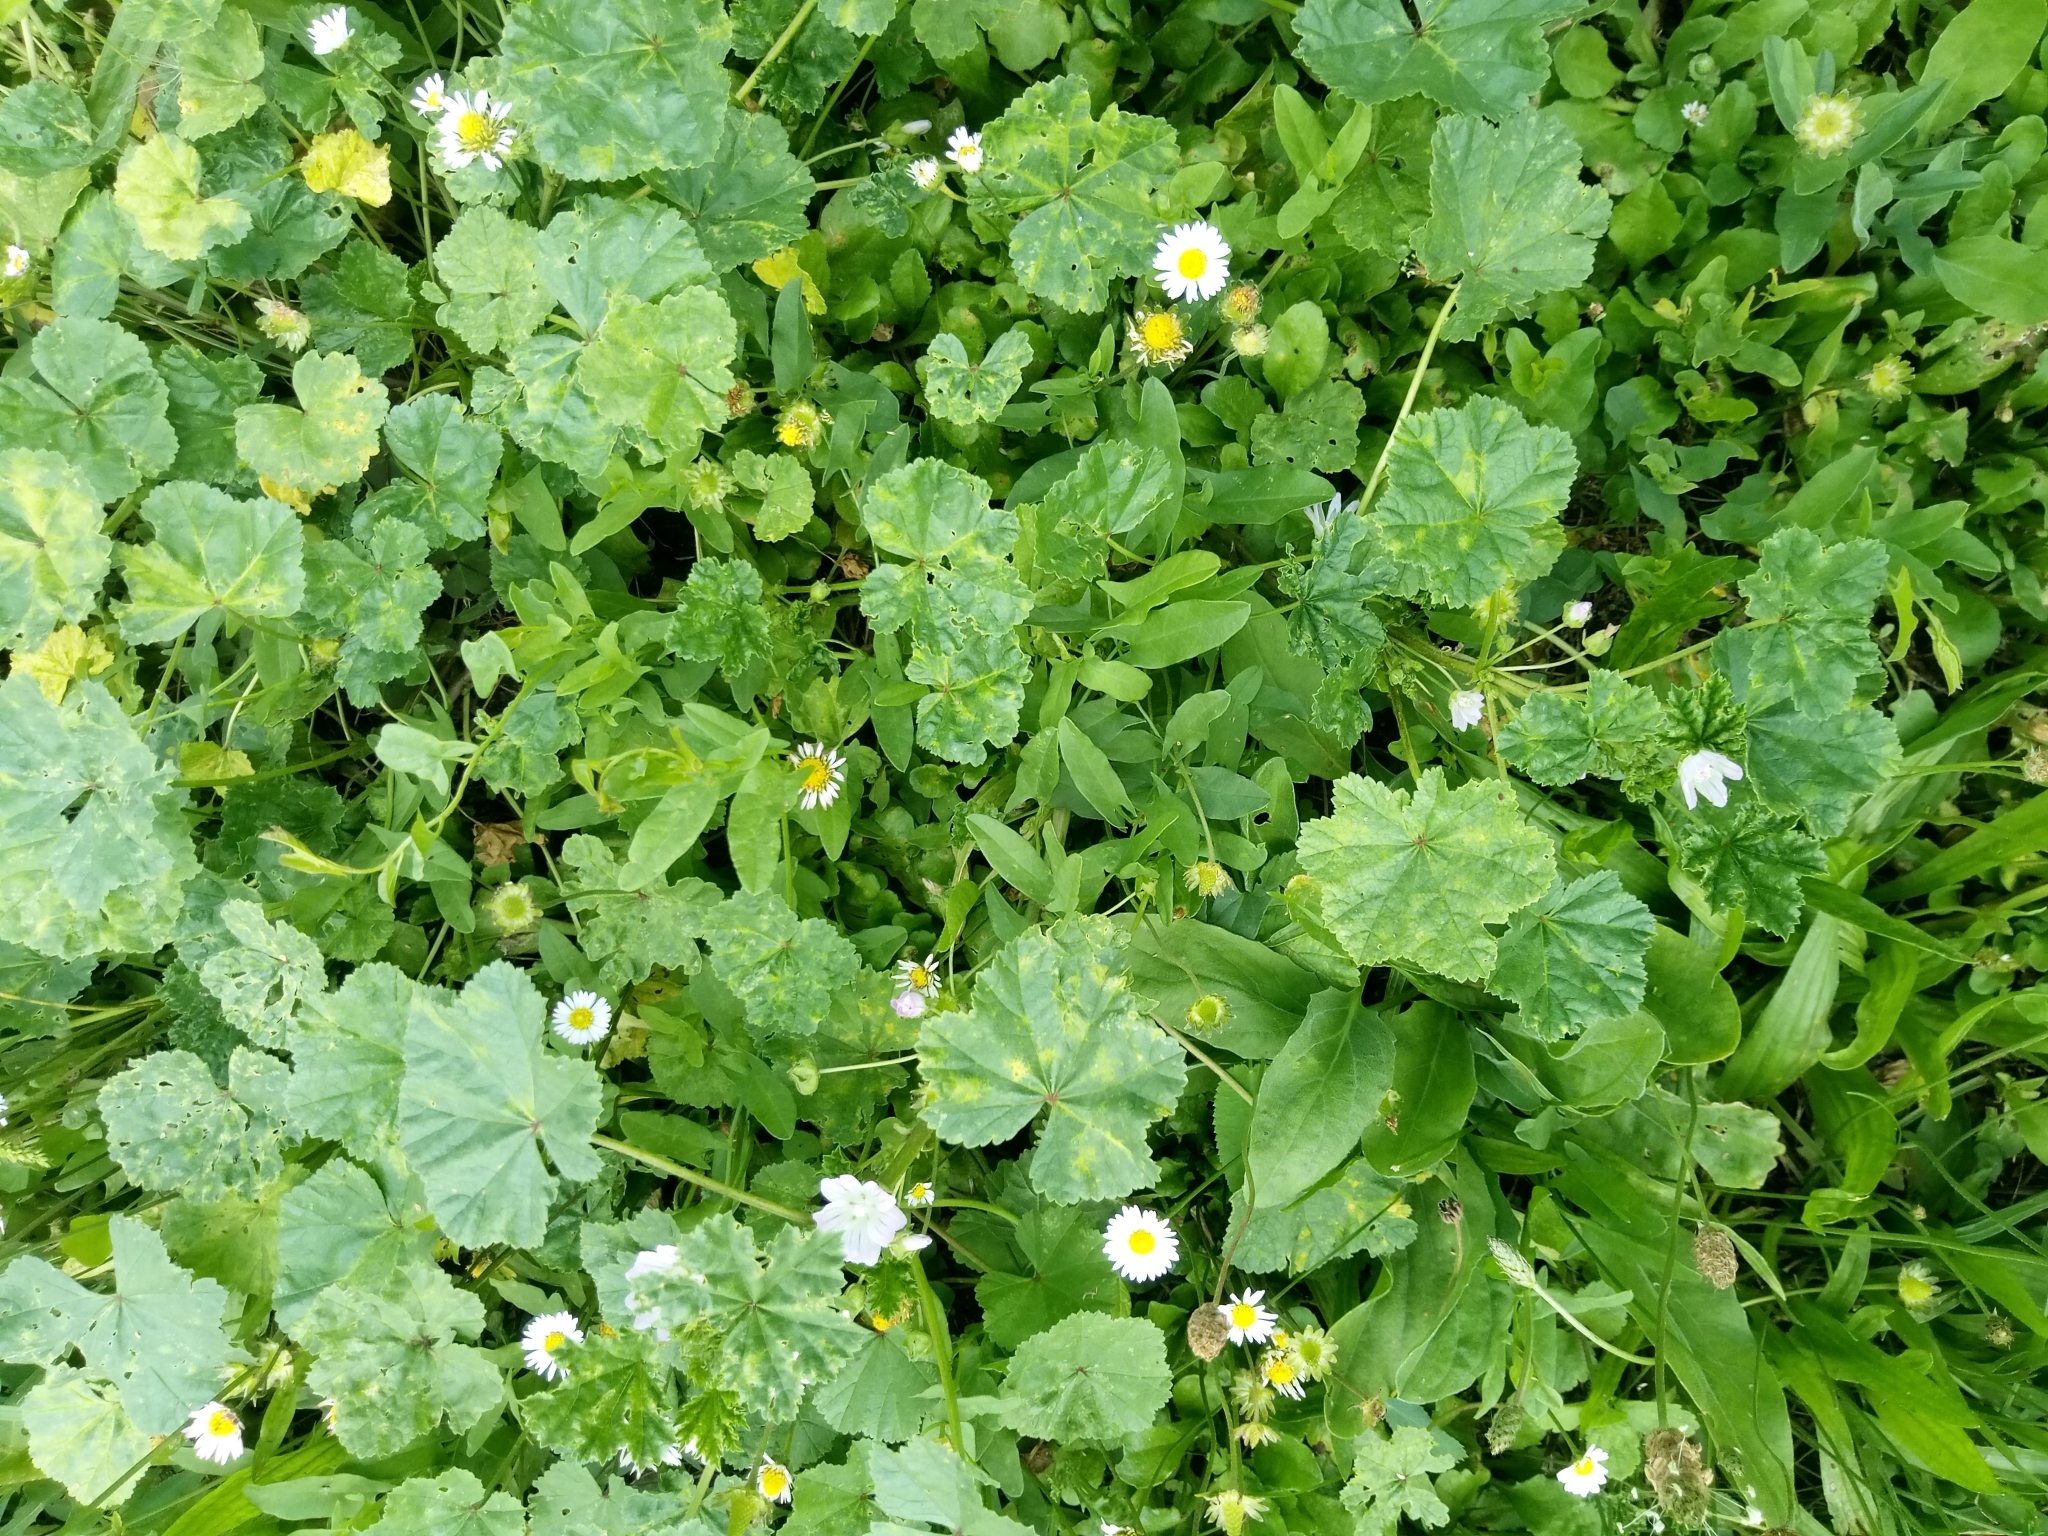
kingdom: Plantae
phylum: Tracheophyta
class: Magnoliopsida
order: Malvales
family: Malvaceae
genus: Malva
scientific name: Malva neglecta
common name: Common mallow
